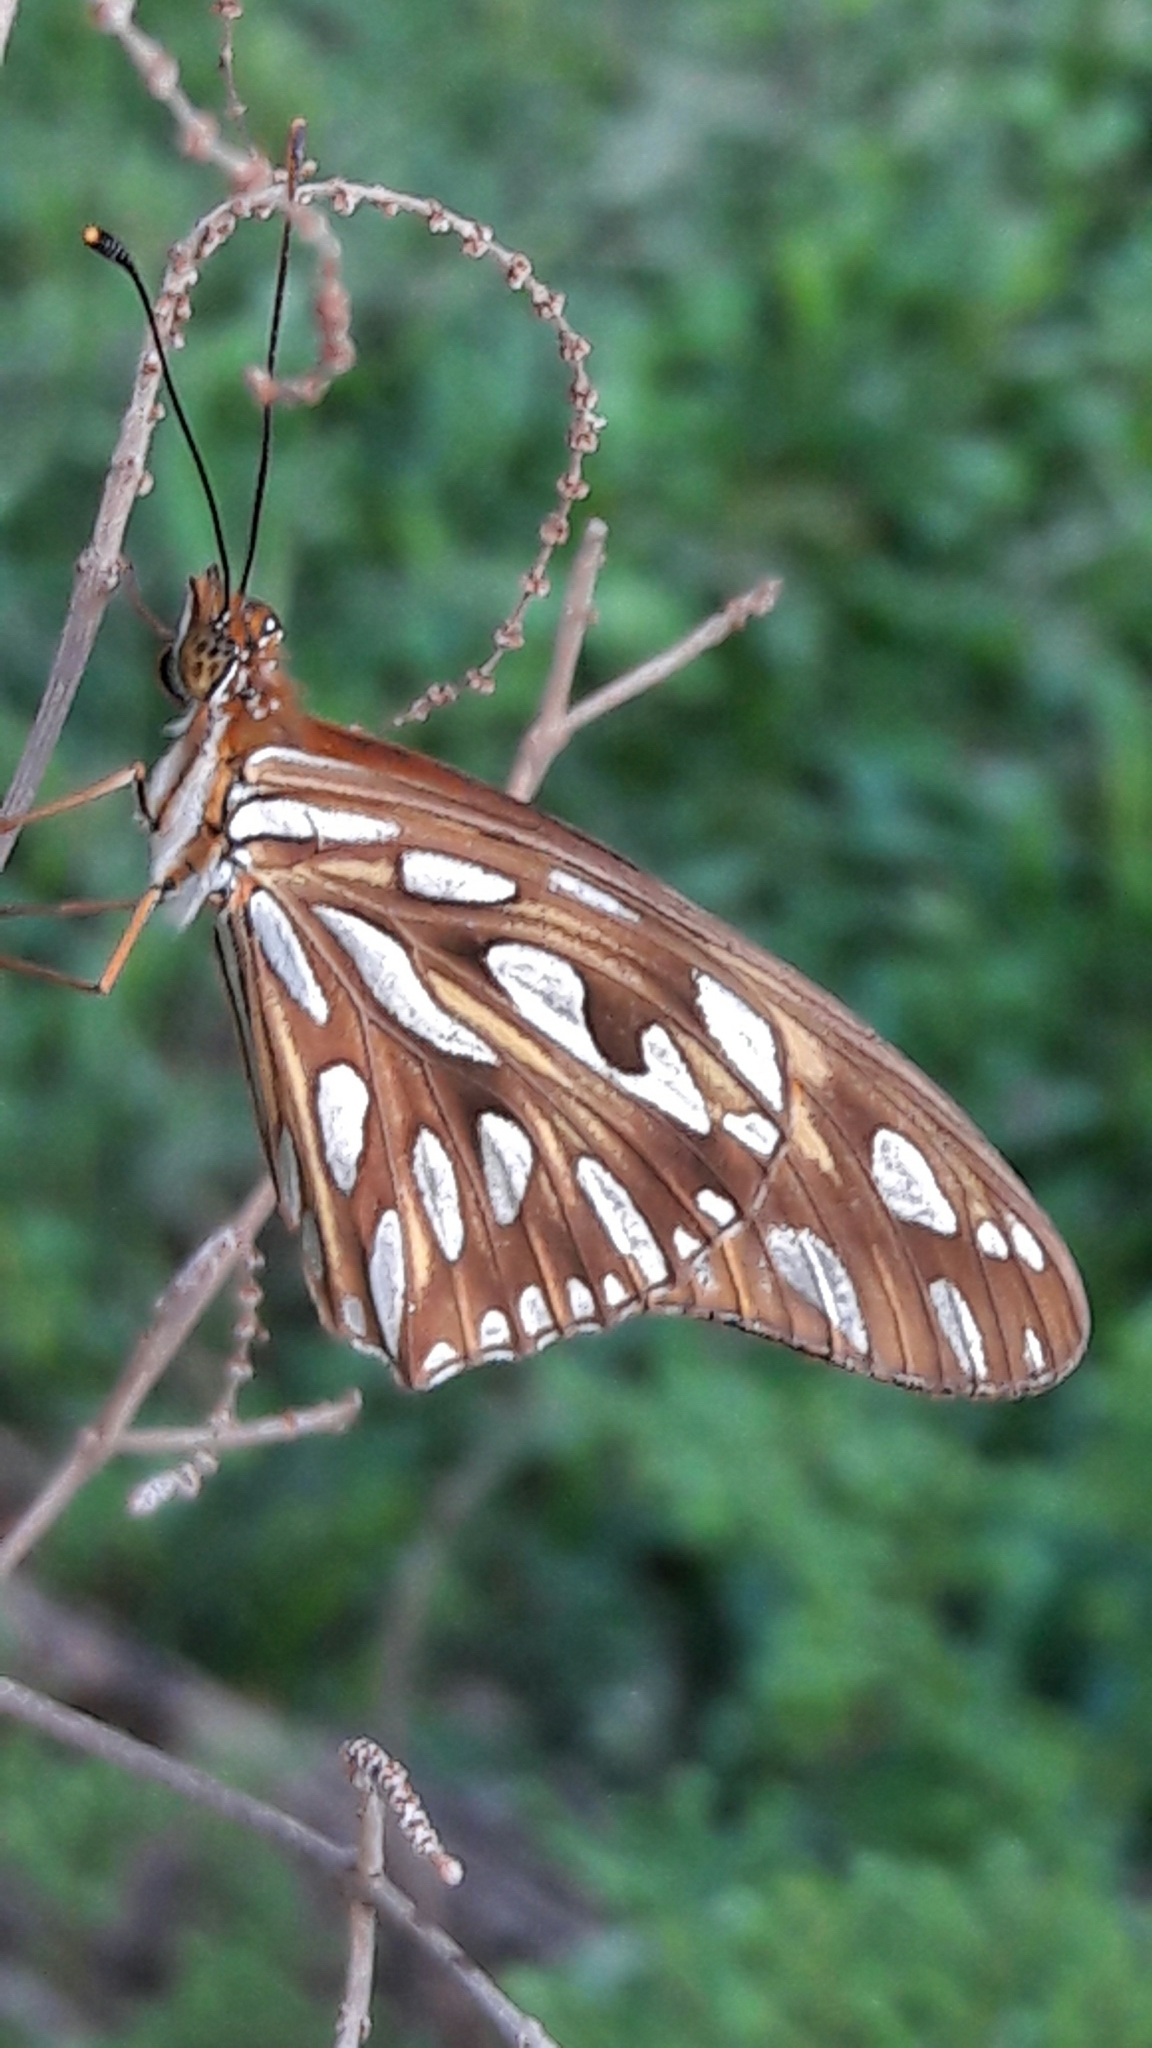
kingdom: Animalia
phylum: Arthropoda
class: Insecta
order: Lepidoptera
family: Nymphalidae
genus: Dione
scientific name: Dione vanillae
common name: Gulf fritillary
